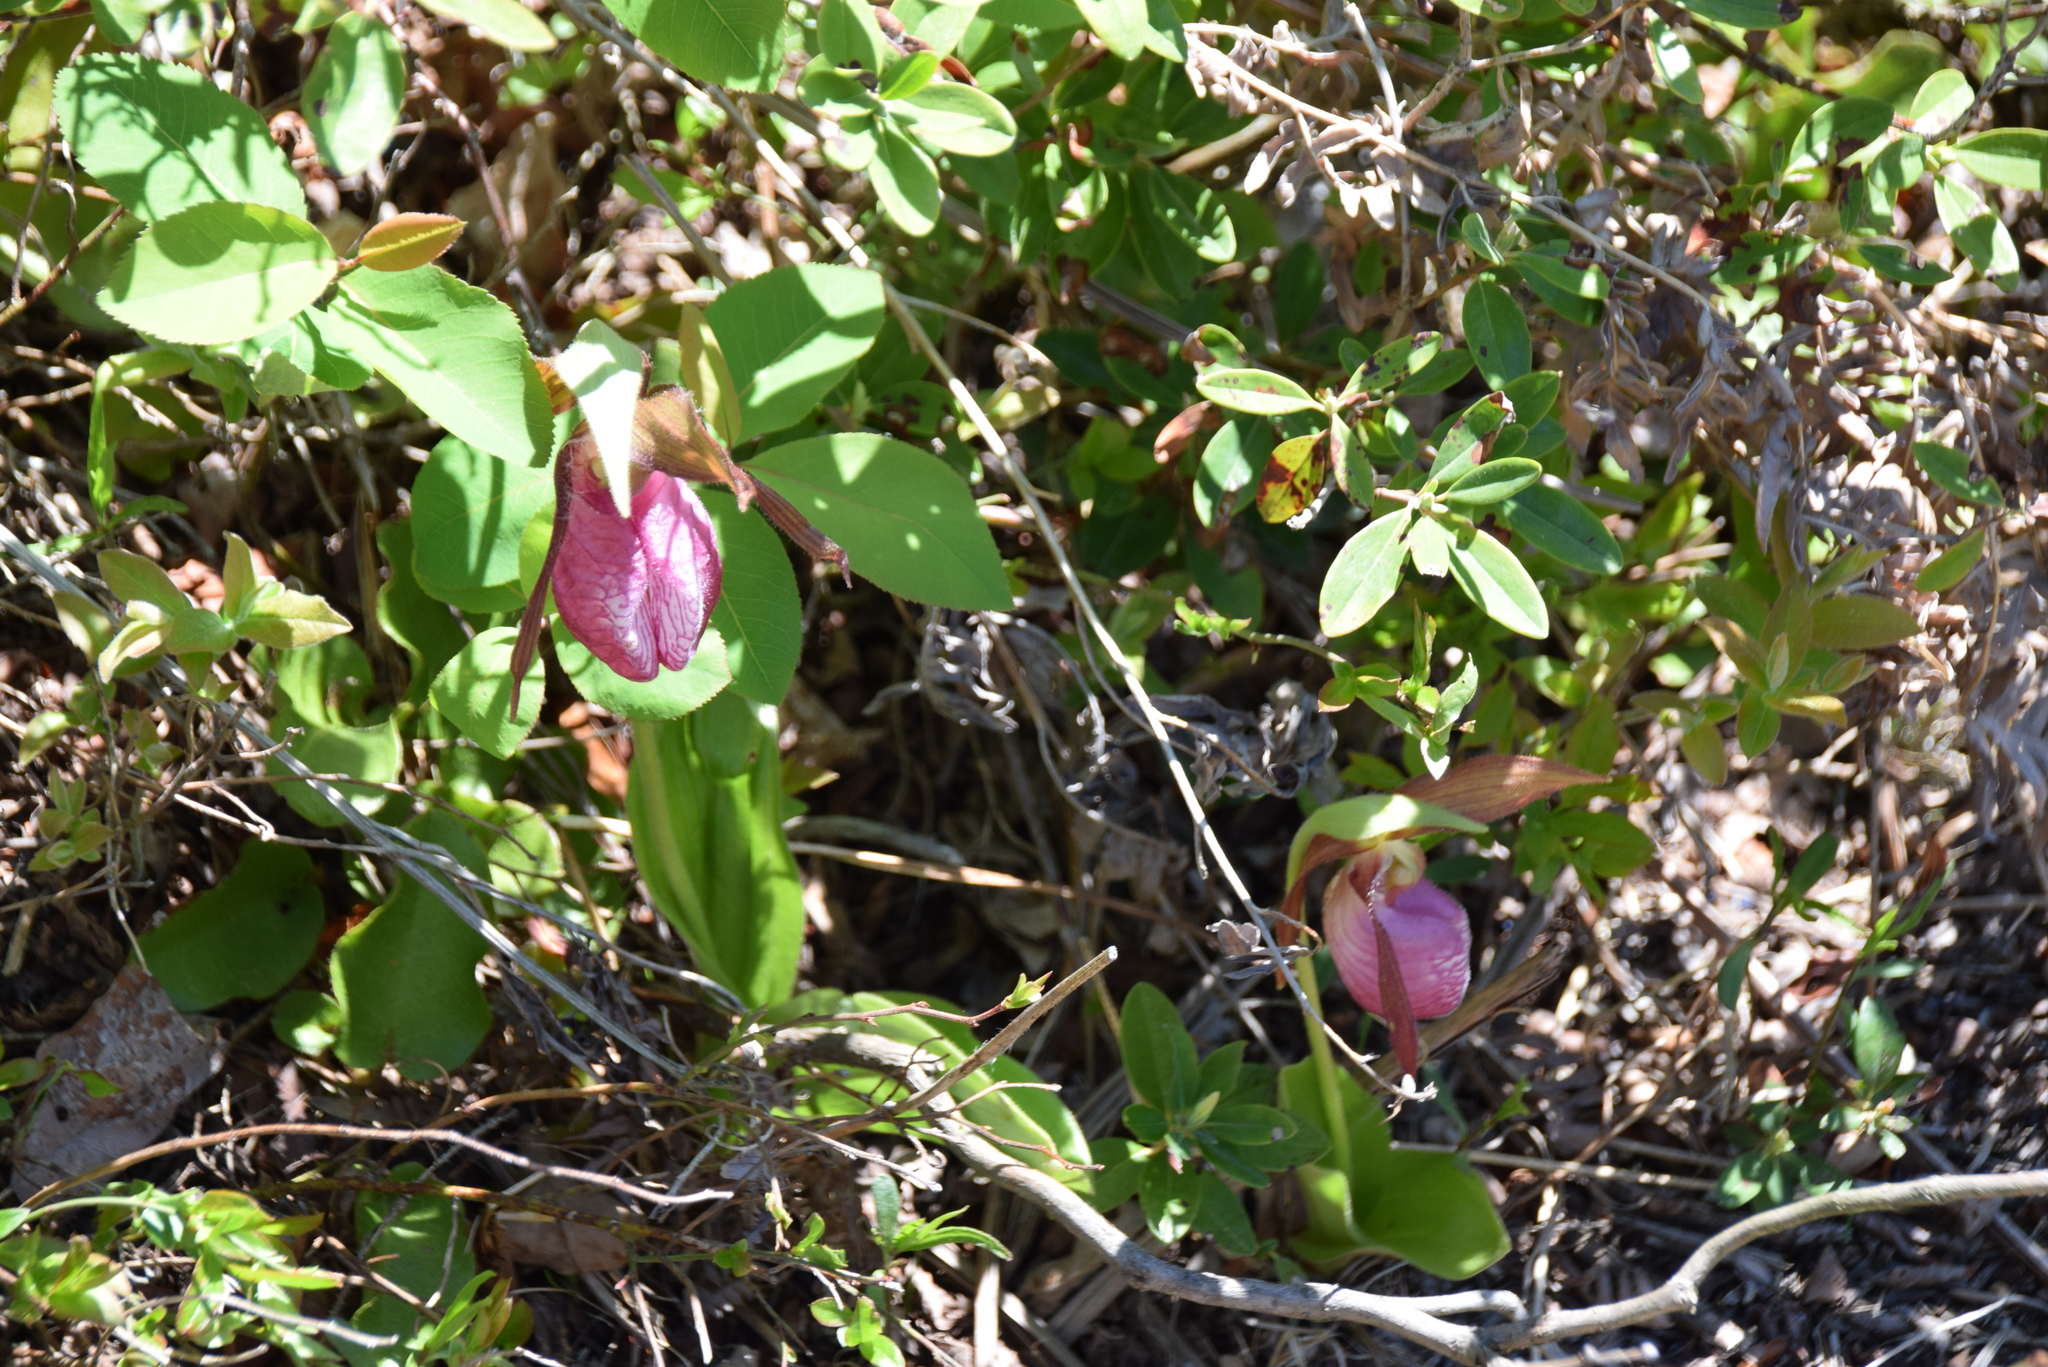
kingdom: Plantae
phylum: Tracheophyta
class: Liliopsida
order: Asparagales
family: Orchidaceae
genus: Cypripedium
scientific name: Cypripedium acaule
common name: Pink lady's-slipper
